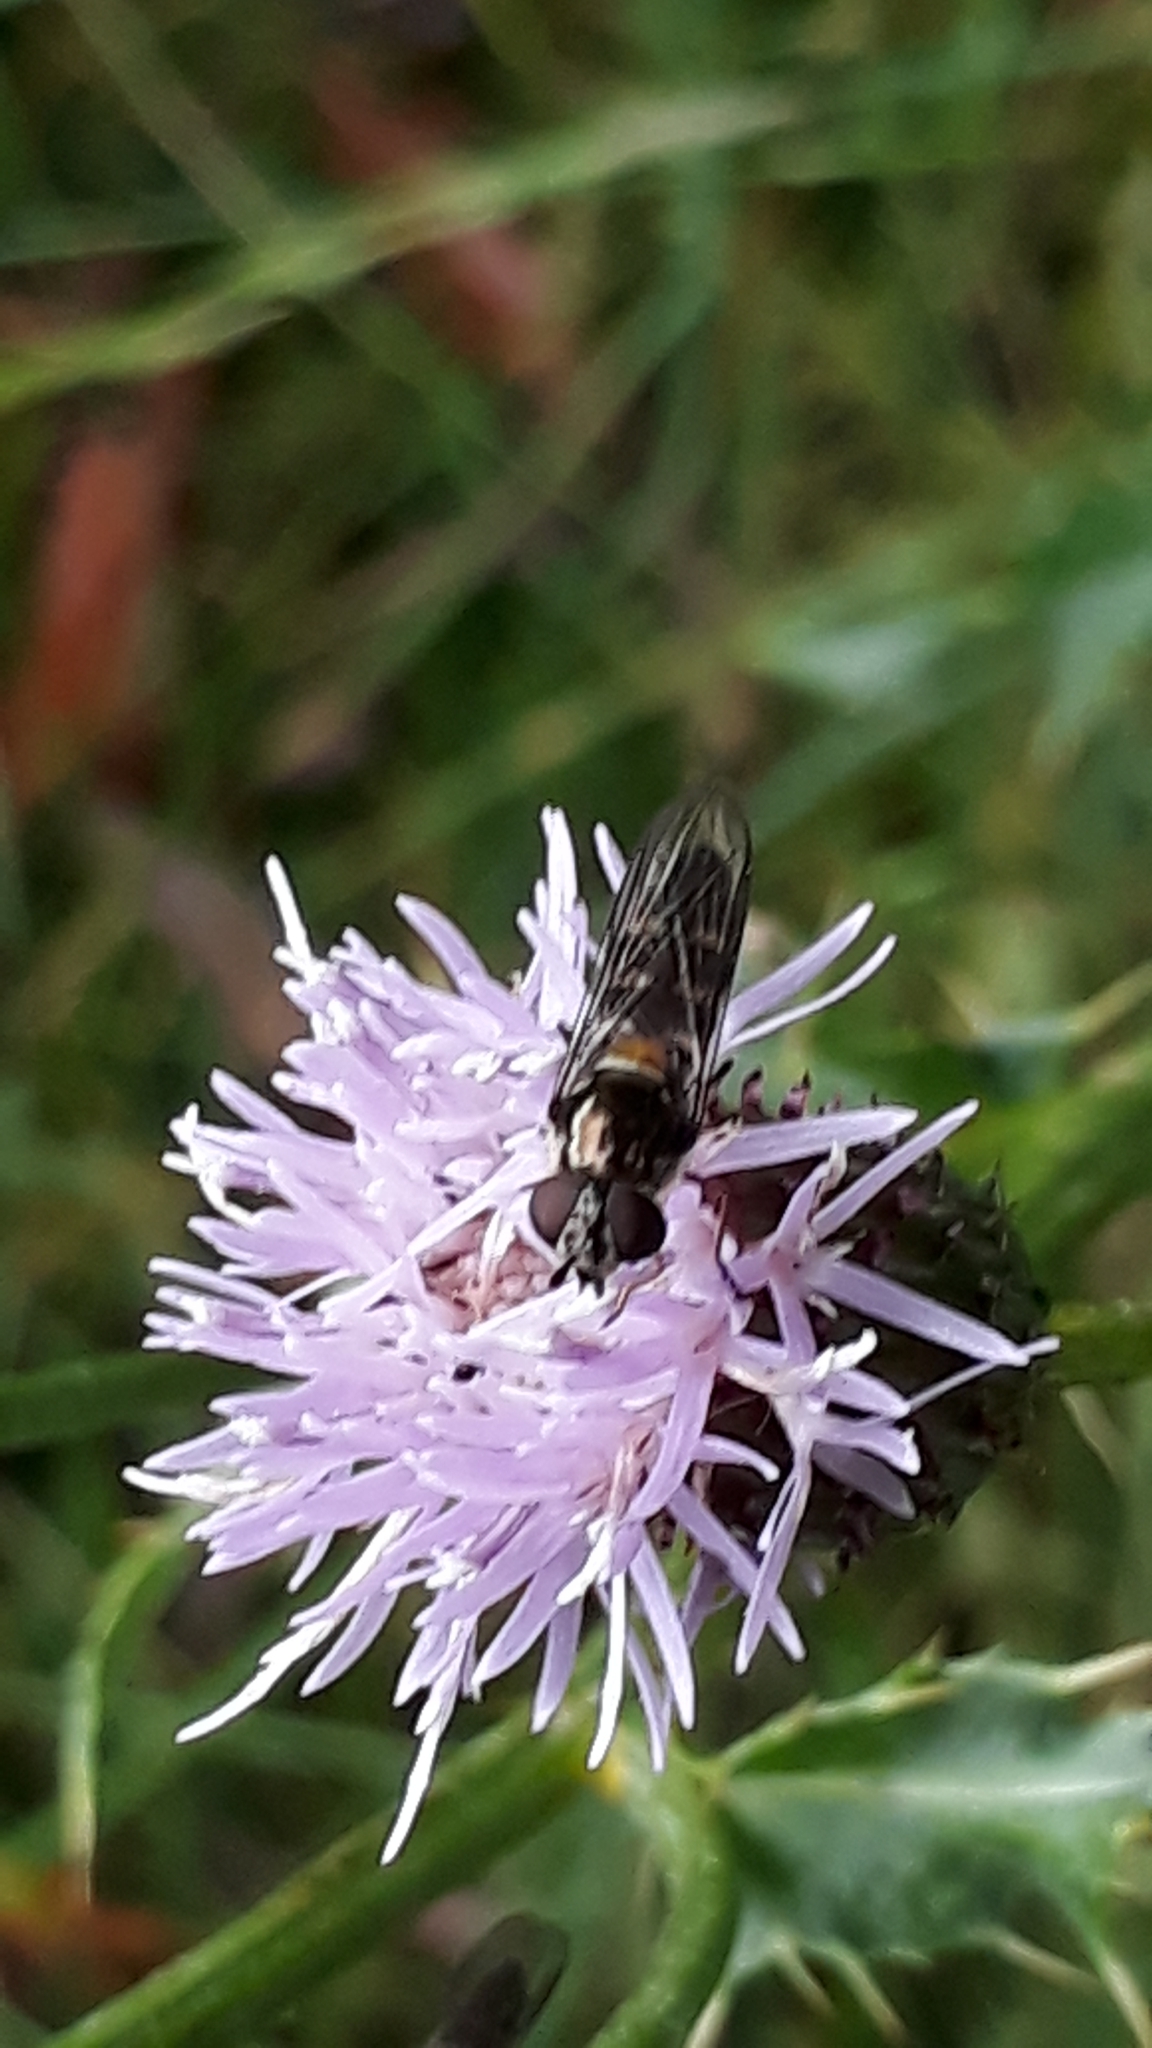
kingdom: Animalia
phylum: Arthropoda
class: Insecta
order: Diptera
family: Syrphidae
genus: Melangyna
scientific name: Melangyna novaezelandiae
